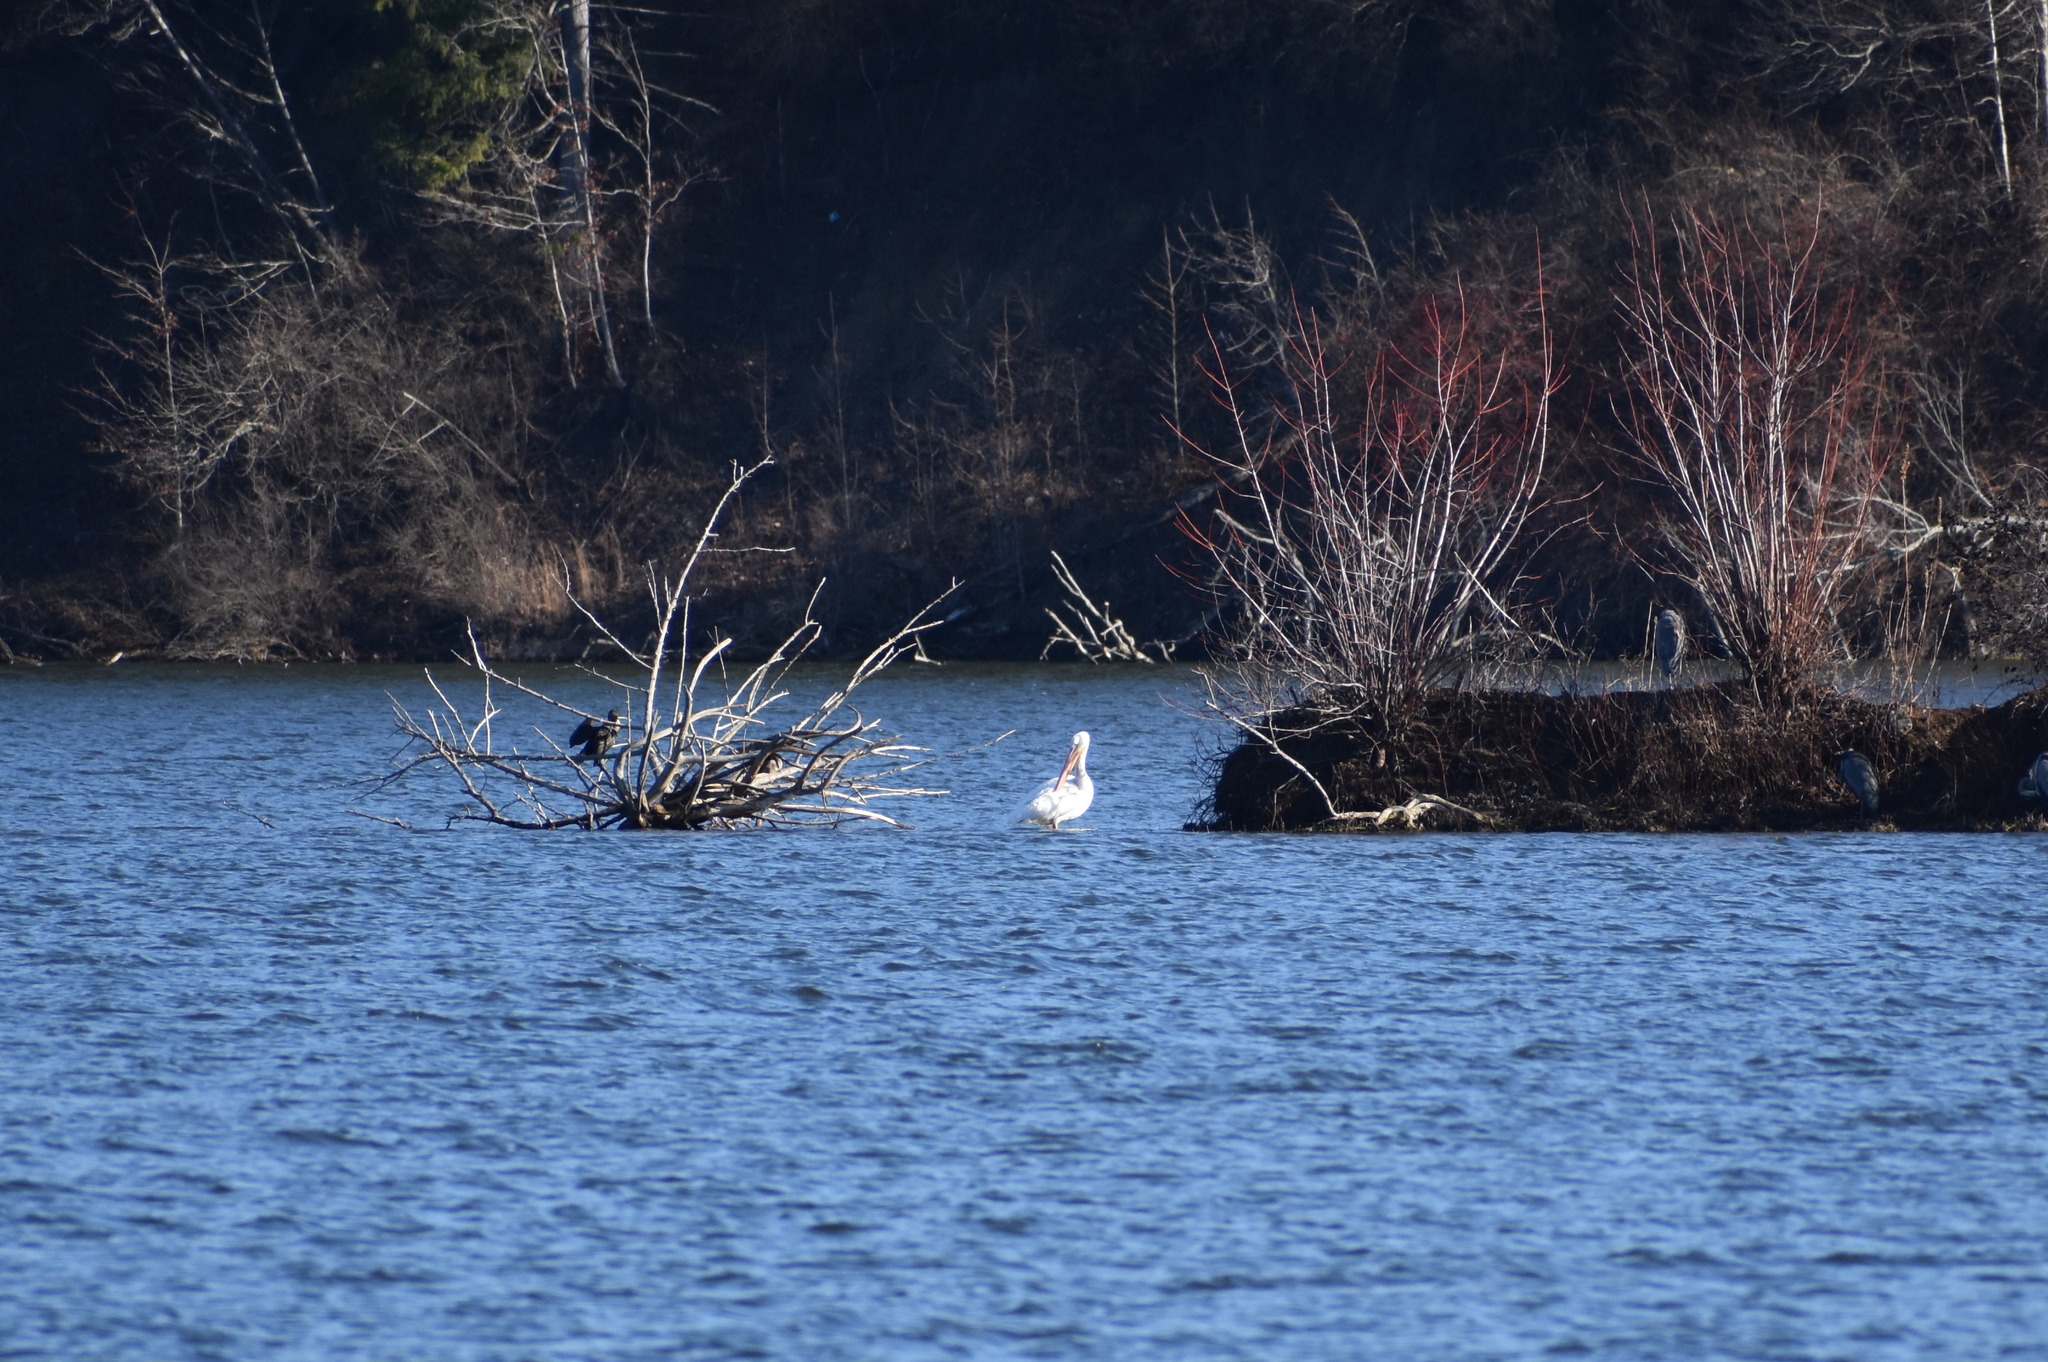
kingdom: Animalia
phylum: Chordata
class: Aves
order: Pelecaniformes
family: Pelecanidae
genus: Pelecanus
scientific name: Pelecanus erythrorhynchos
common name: American white pelican
